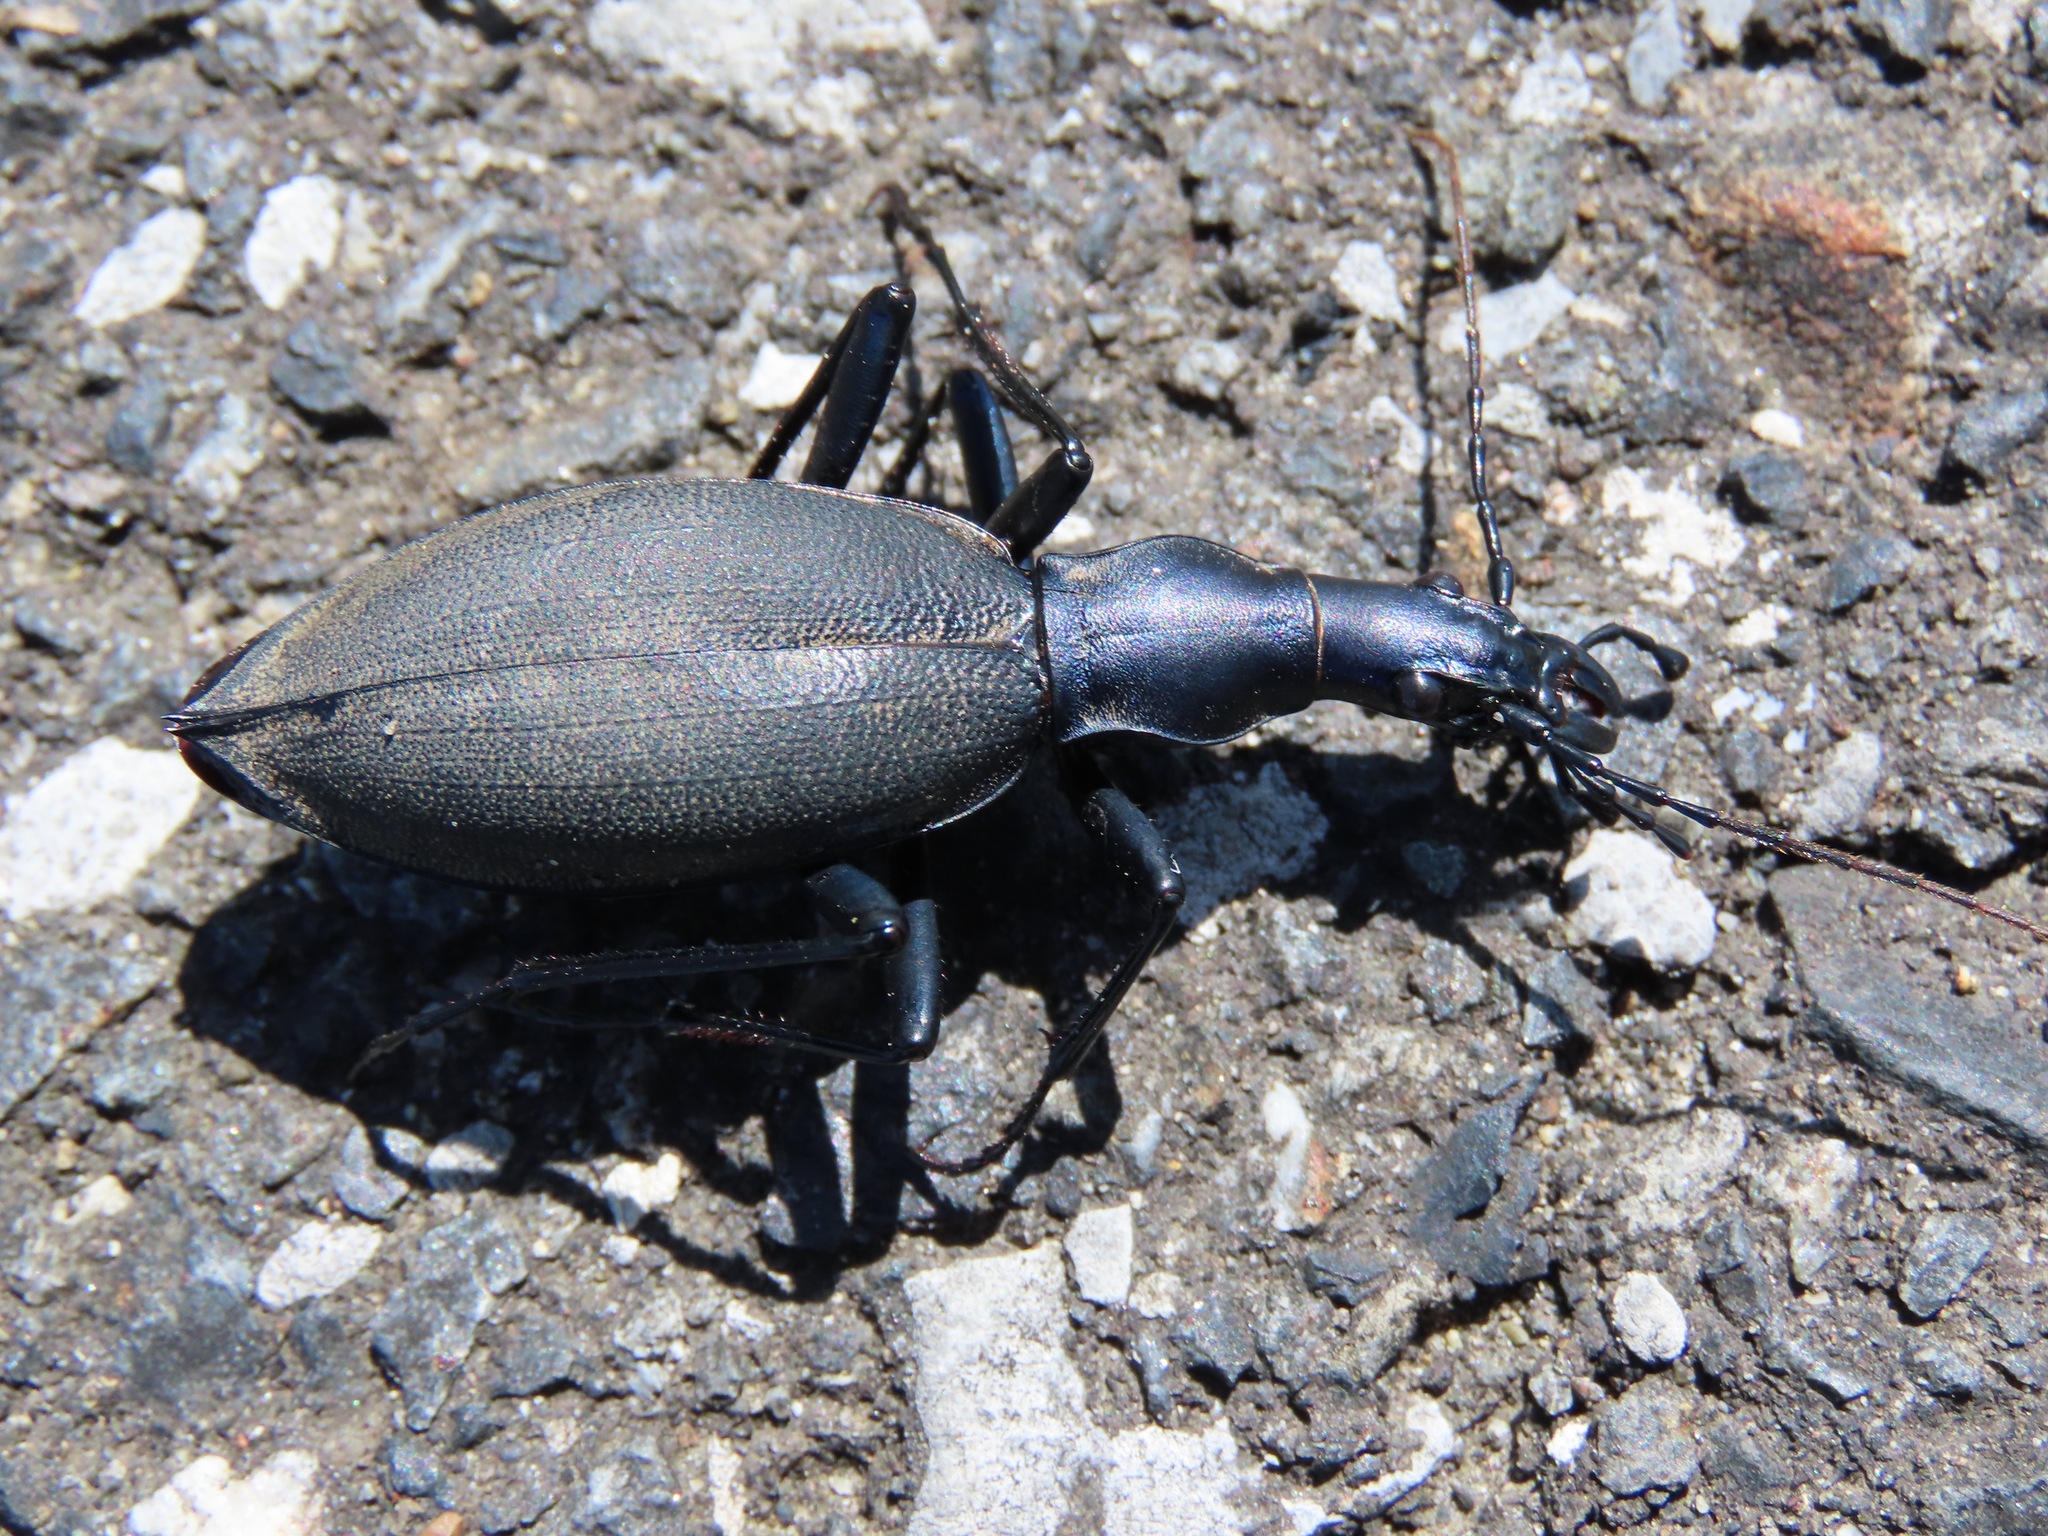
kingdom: Animalia
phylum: Arthropoda
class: Insecta
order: Coleoptera
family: Carabidae
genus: Carabus
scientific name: Carabus blaptoides
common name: Snail-eating beetle
